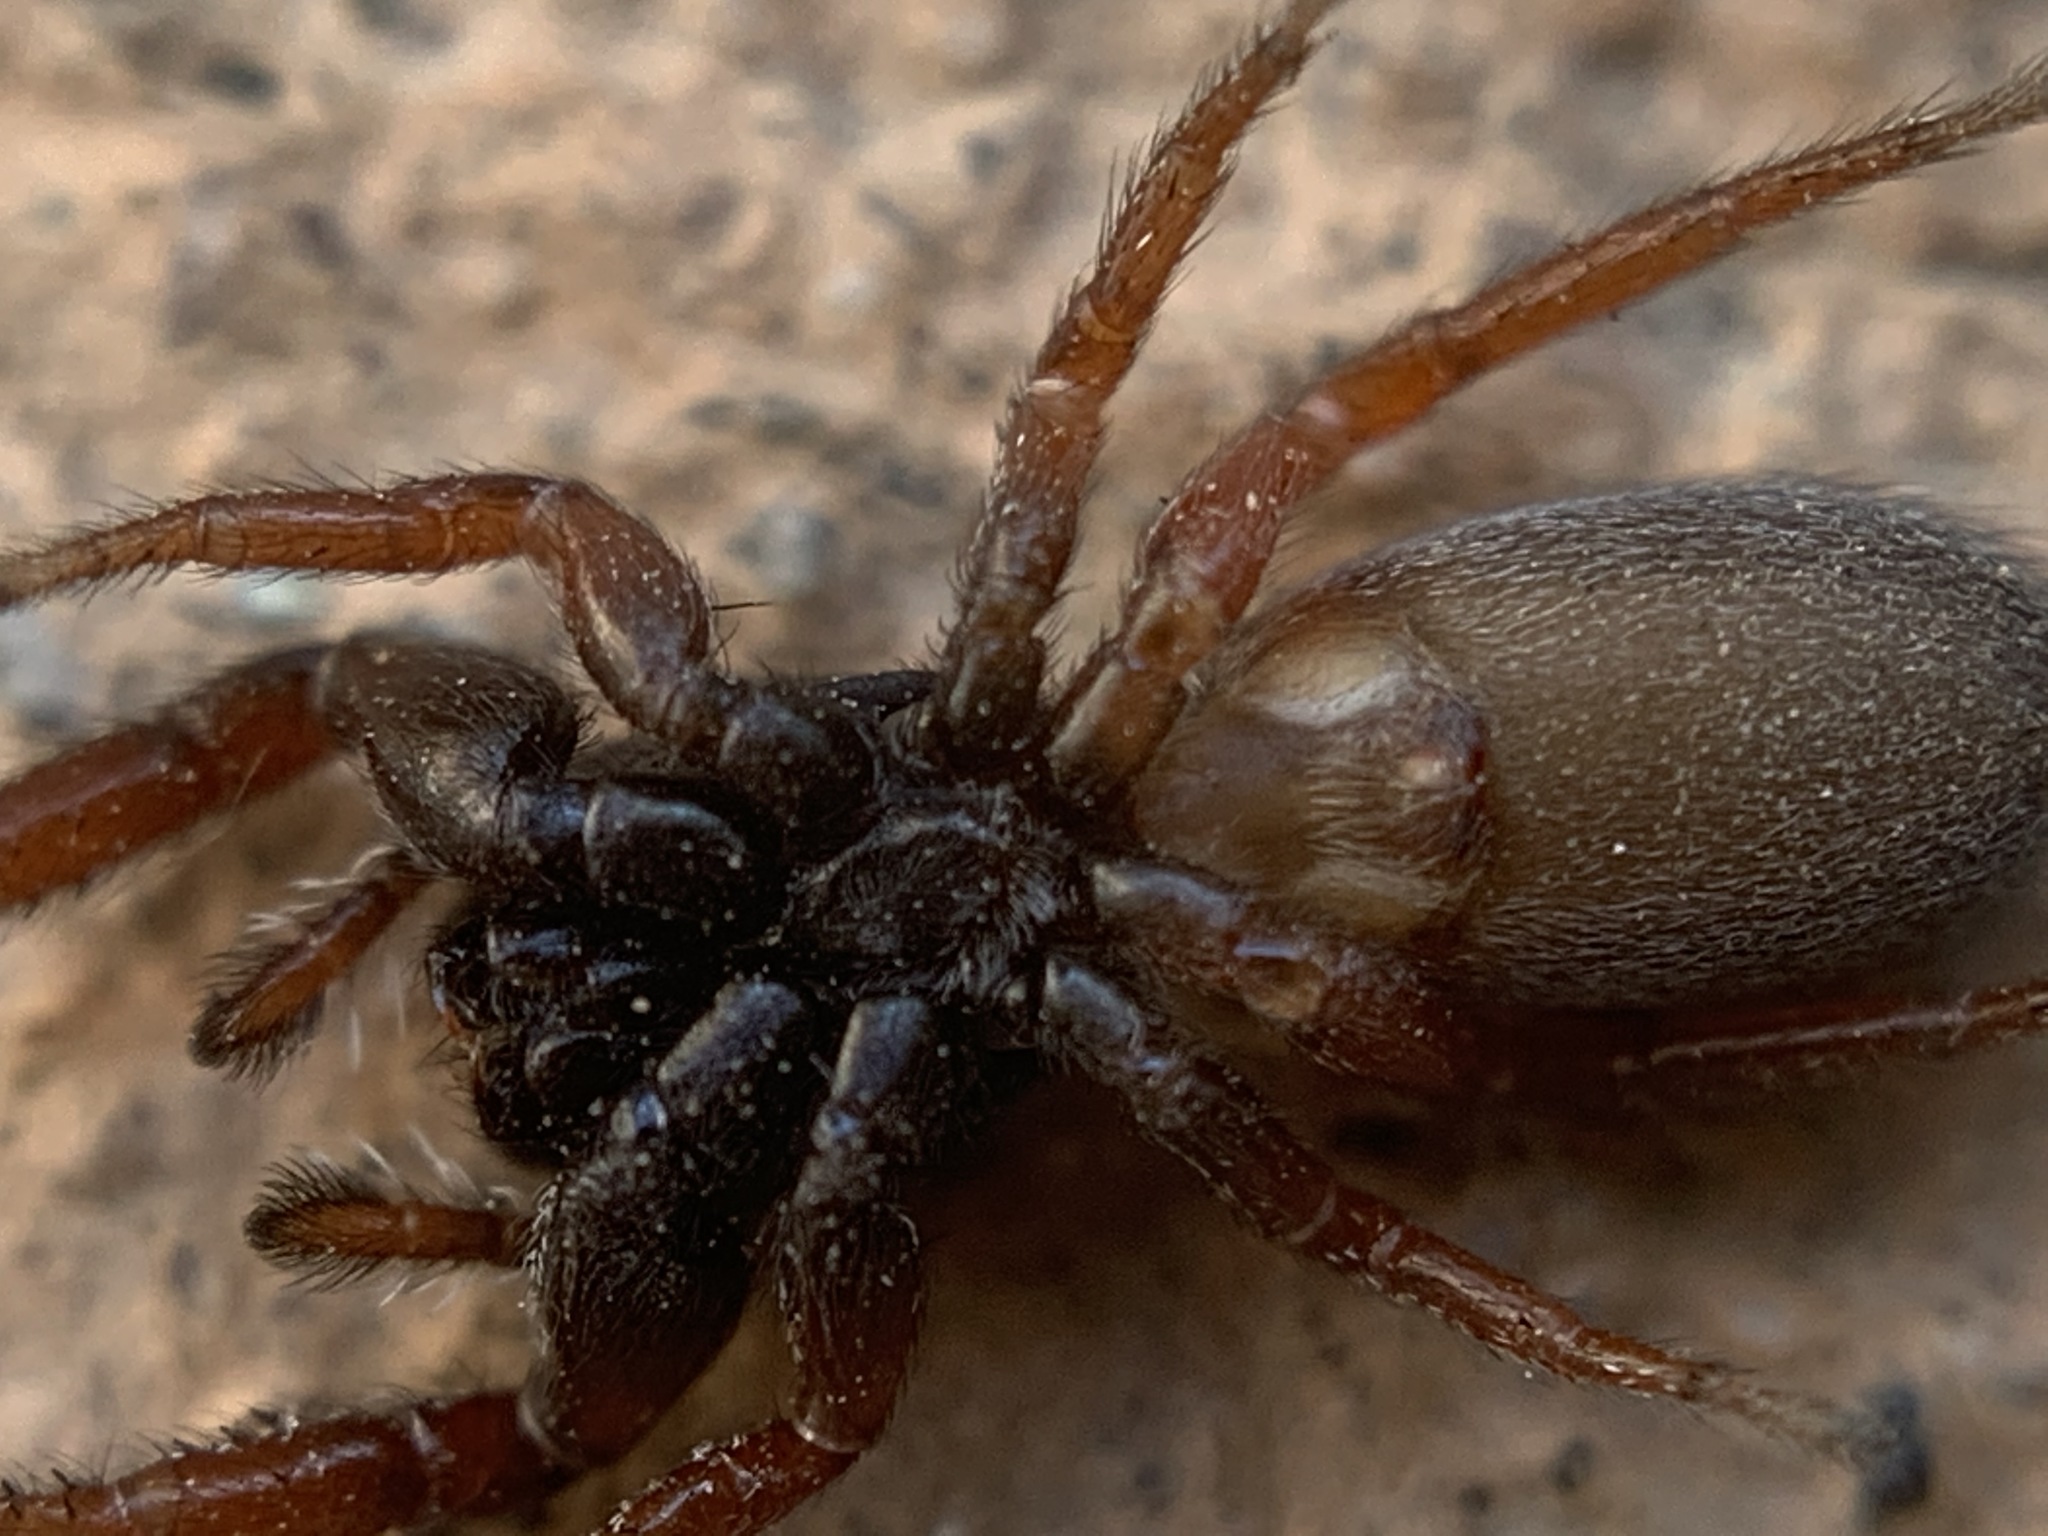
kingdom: Animalia
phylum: Arthropoda
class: Arachnida
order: Araneae
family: Salticidae
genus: Metacyrba
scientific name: Metacyrba taeniola
